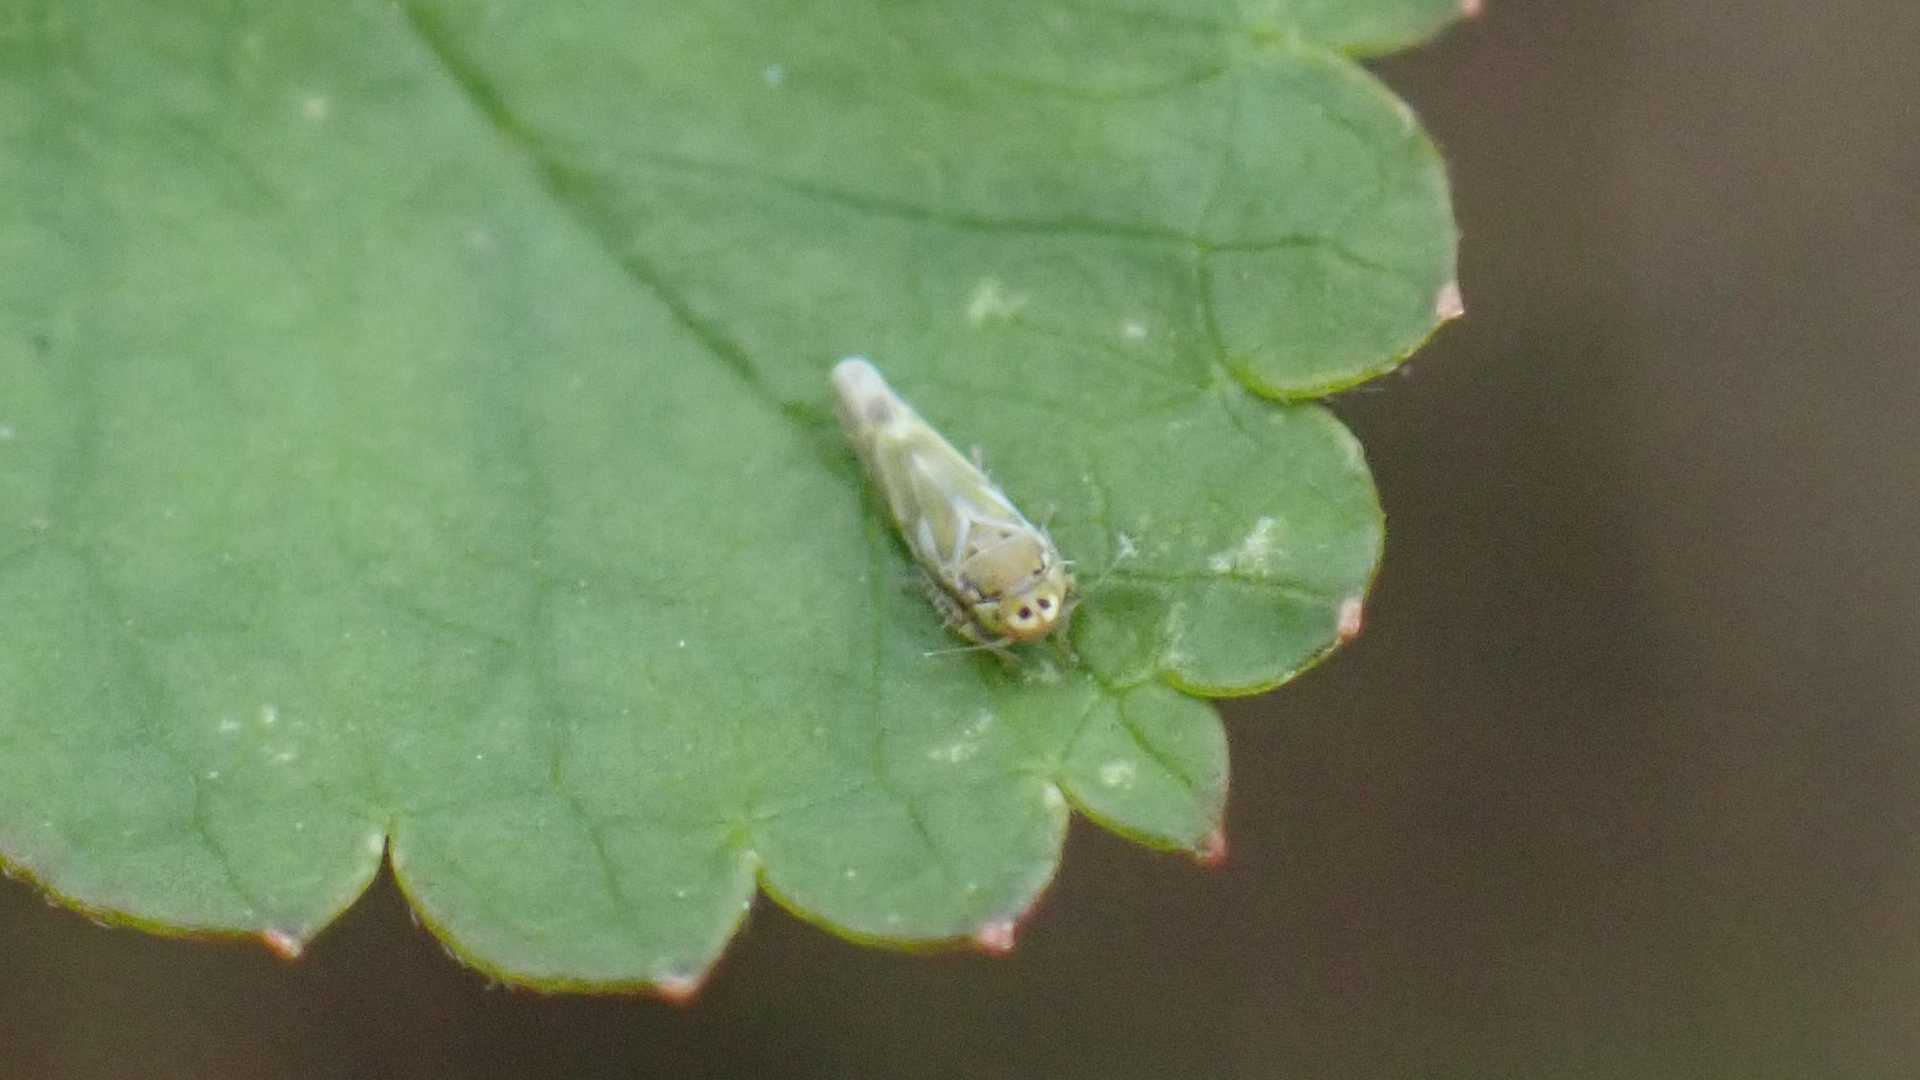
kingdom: Animalia
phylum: Arthropoda
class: Insecta
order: Hemiptera
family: Cicadellidae
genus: Frutioidia
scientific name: Frutioidia bisignata
